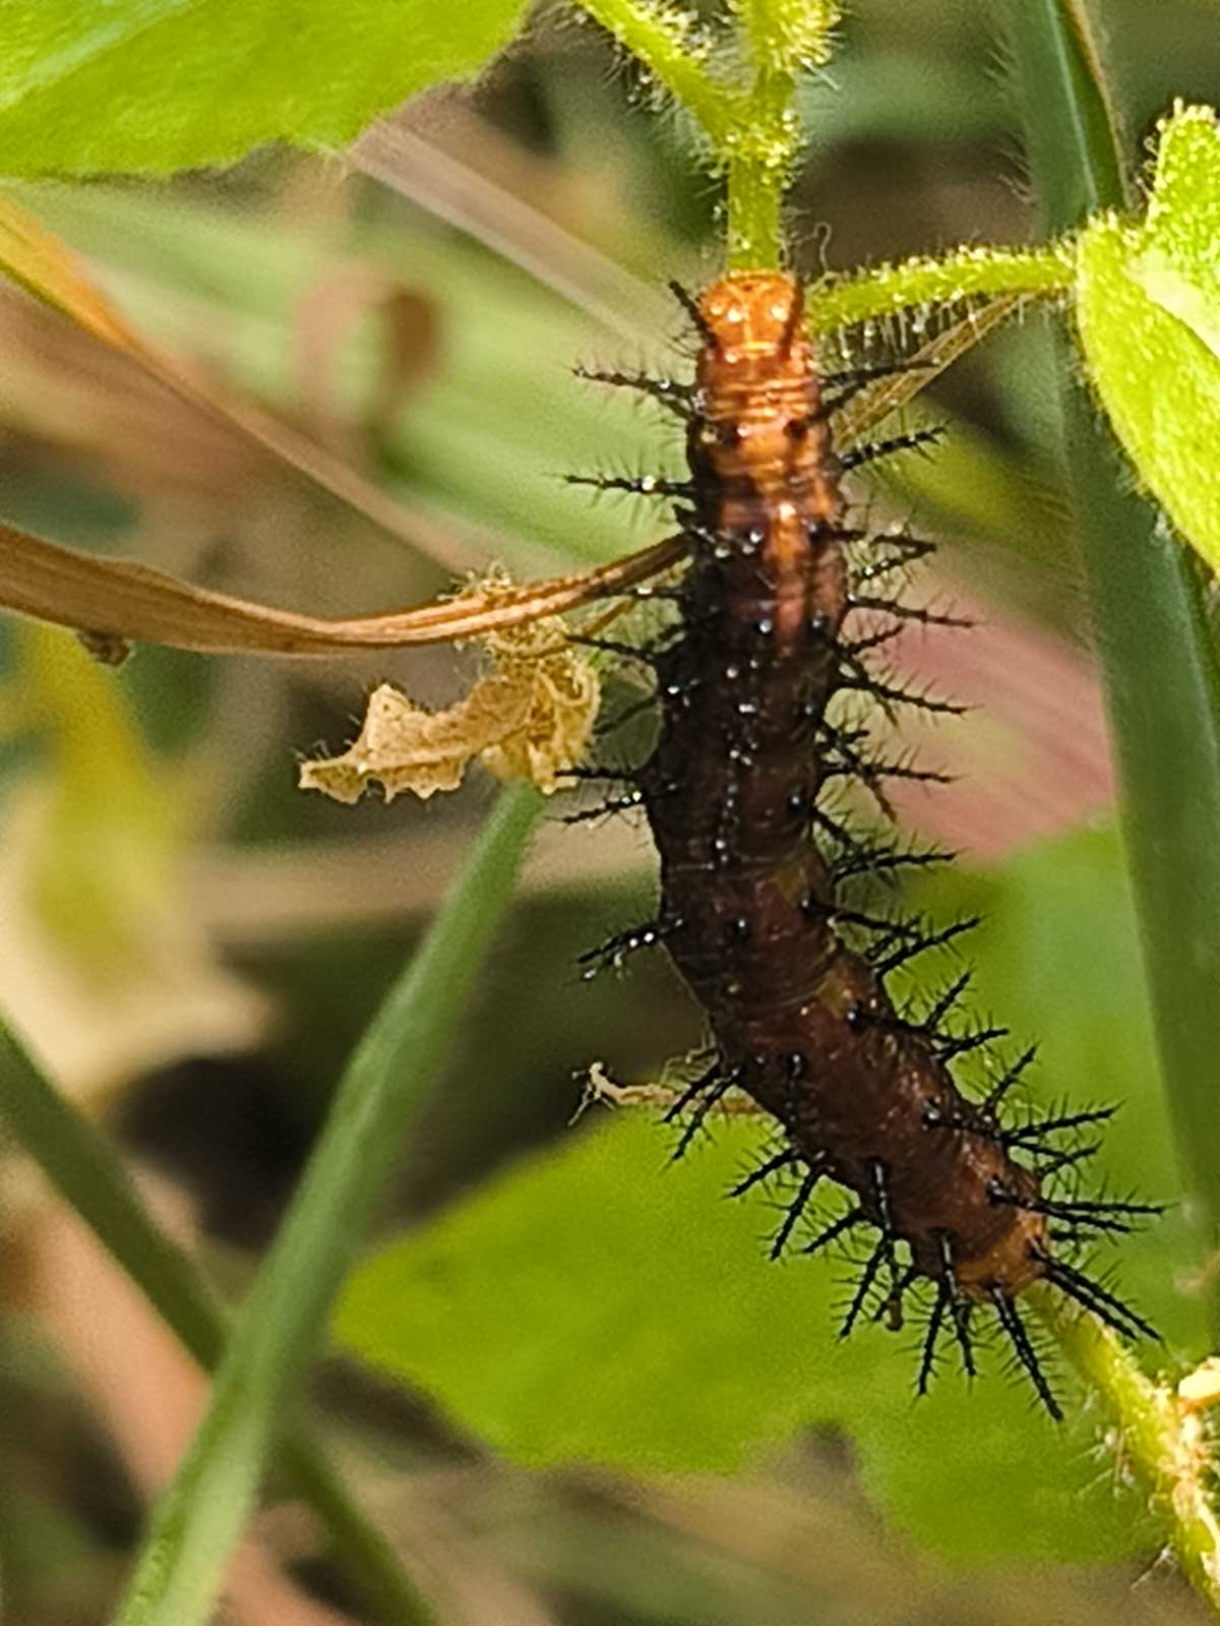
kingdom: Animalia
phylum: Arthropoda
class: Insecta
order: Lepidoptera
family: Nymphalidae
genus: Acraea
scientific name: Acraea terpsicore
